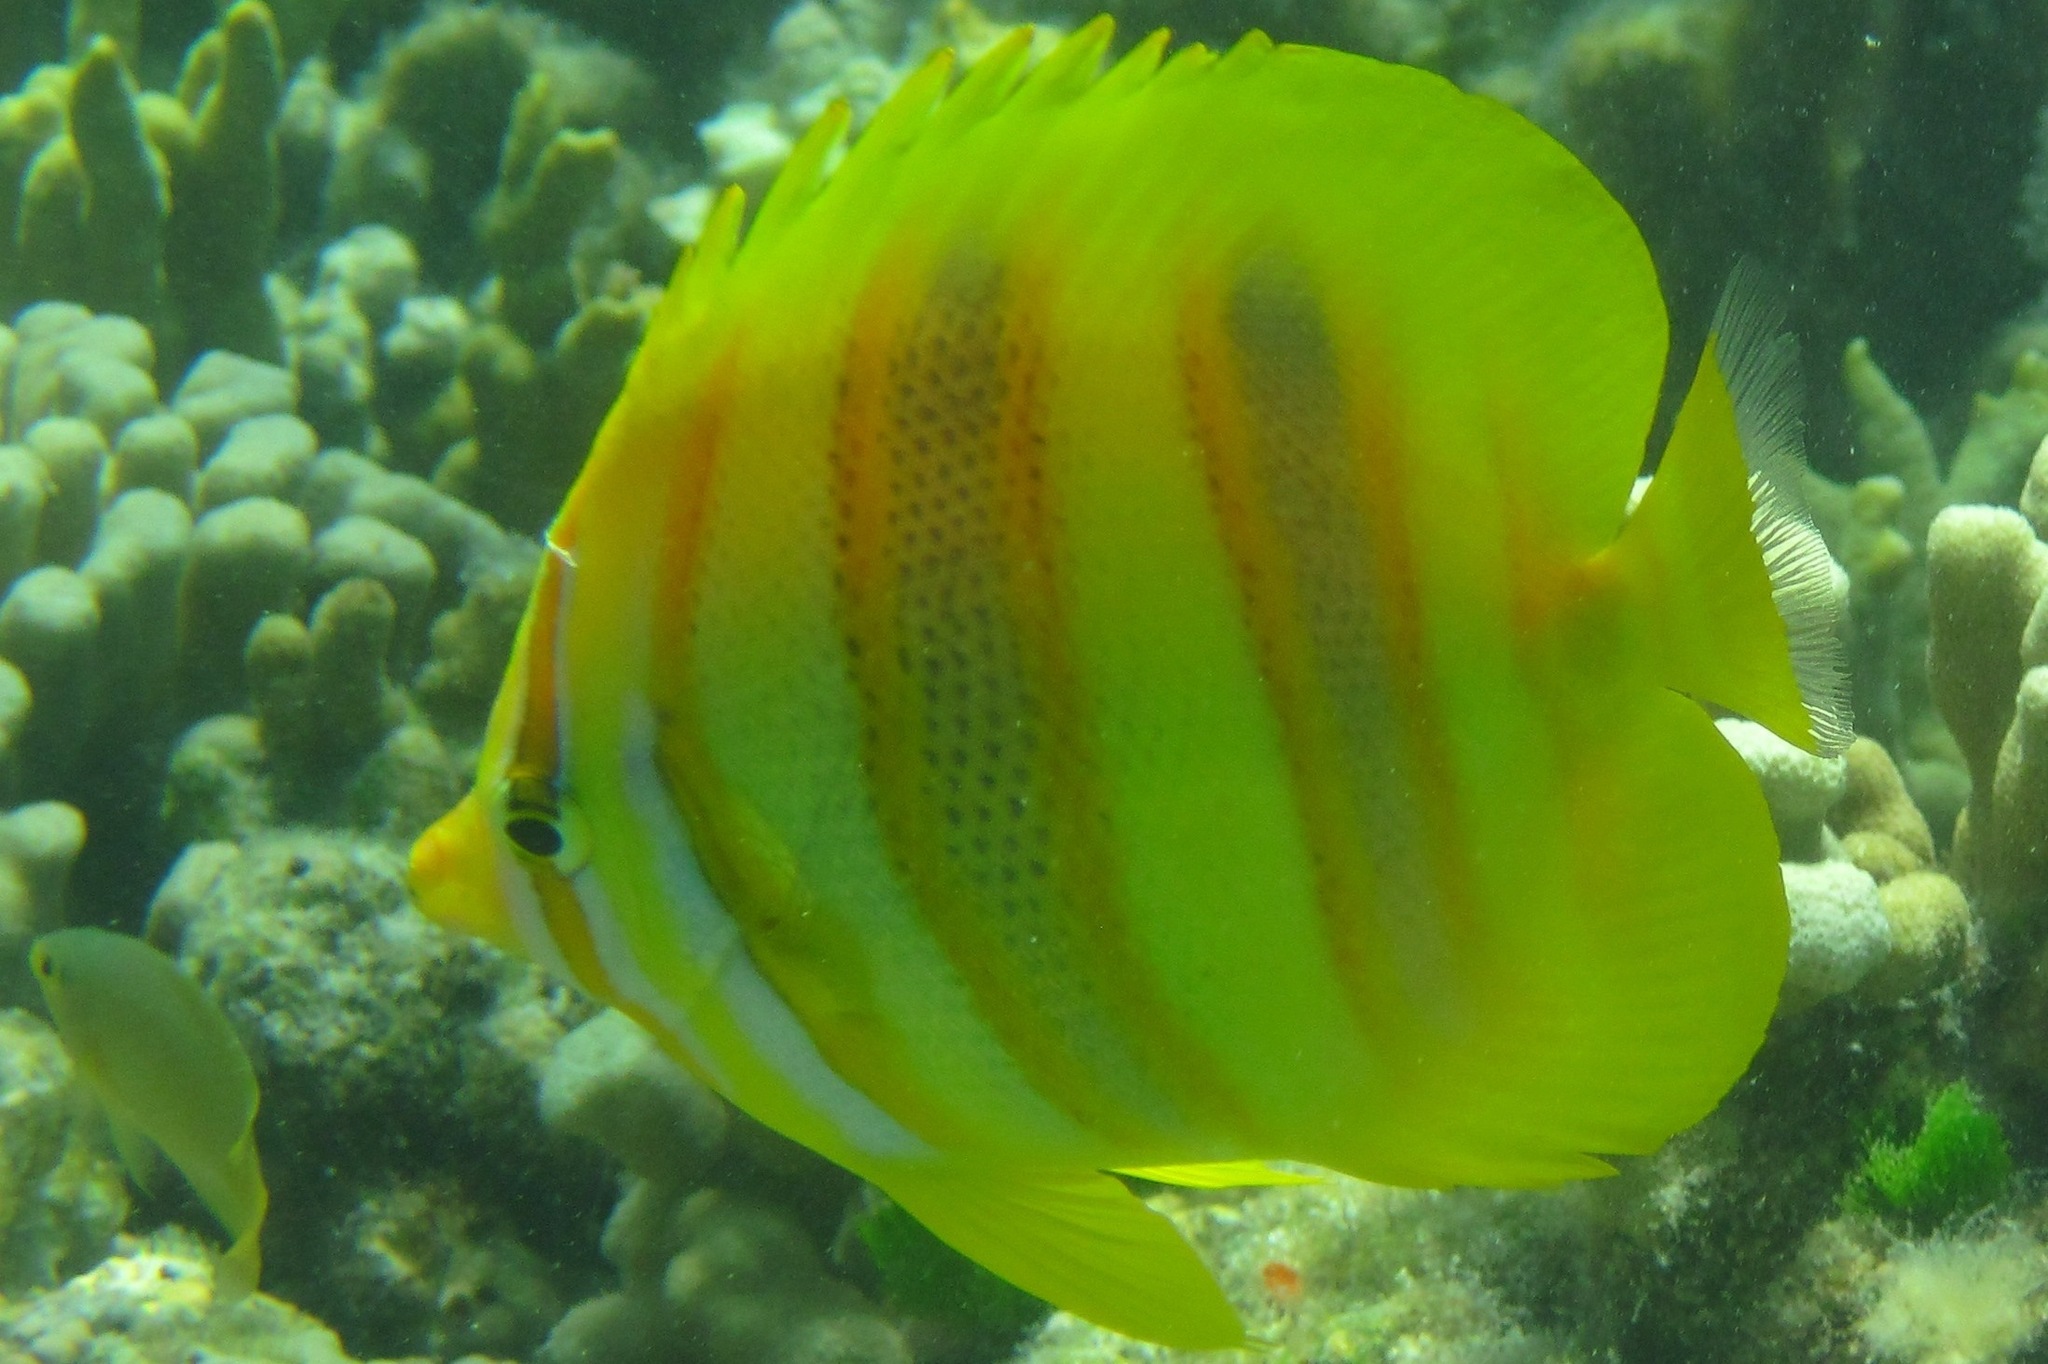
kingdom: Animalia
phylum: Chordata
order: Perciformes
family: Chaetodontidae
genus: Chaetodon
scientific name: Chaetodon rainfordi
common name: Rainford's butterflyfish
